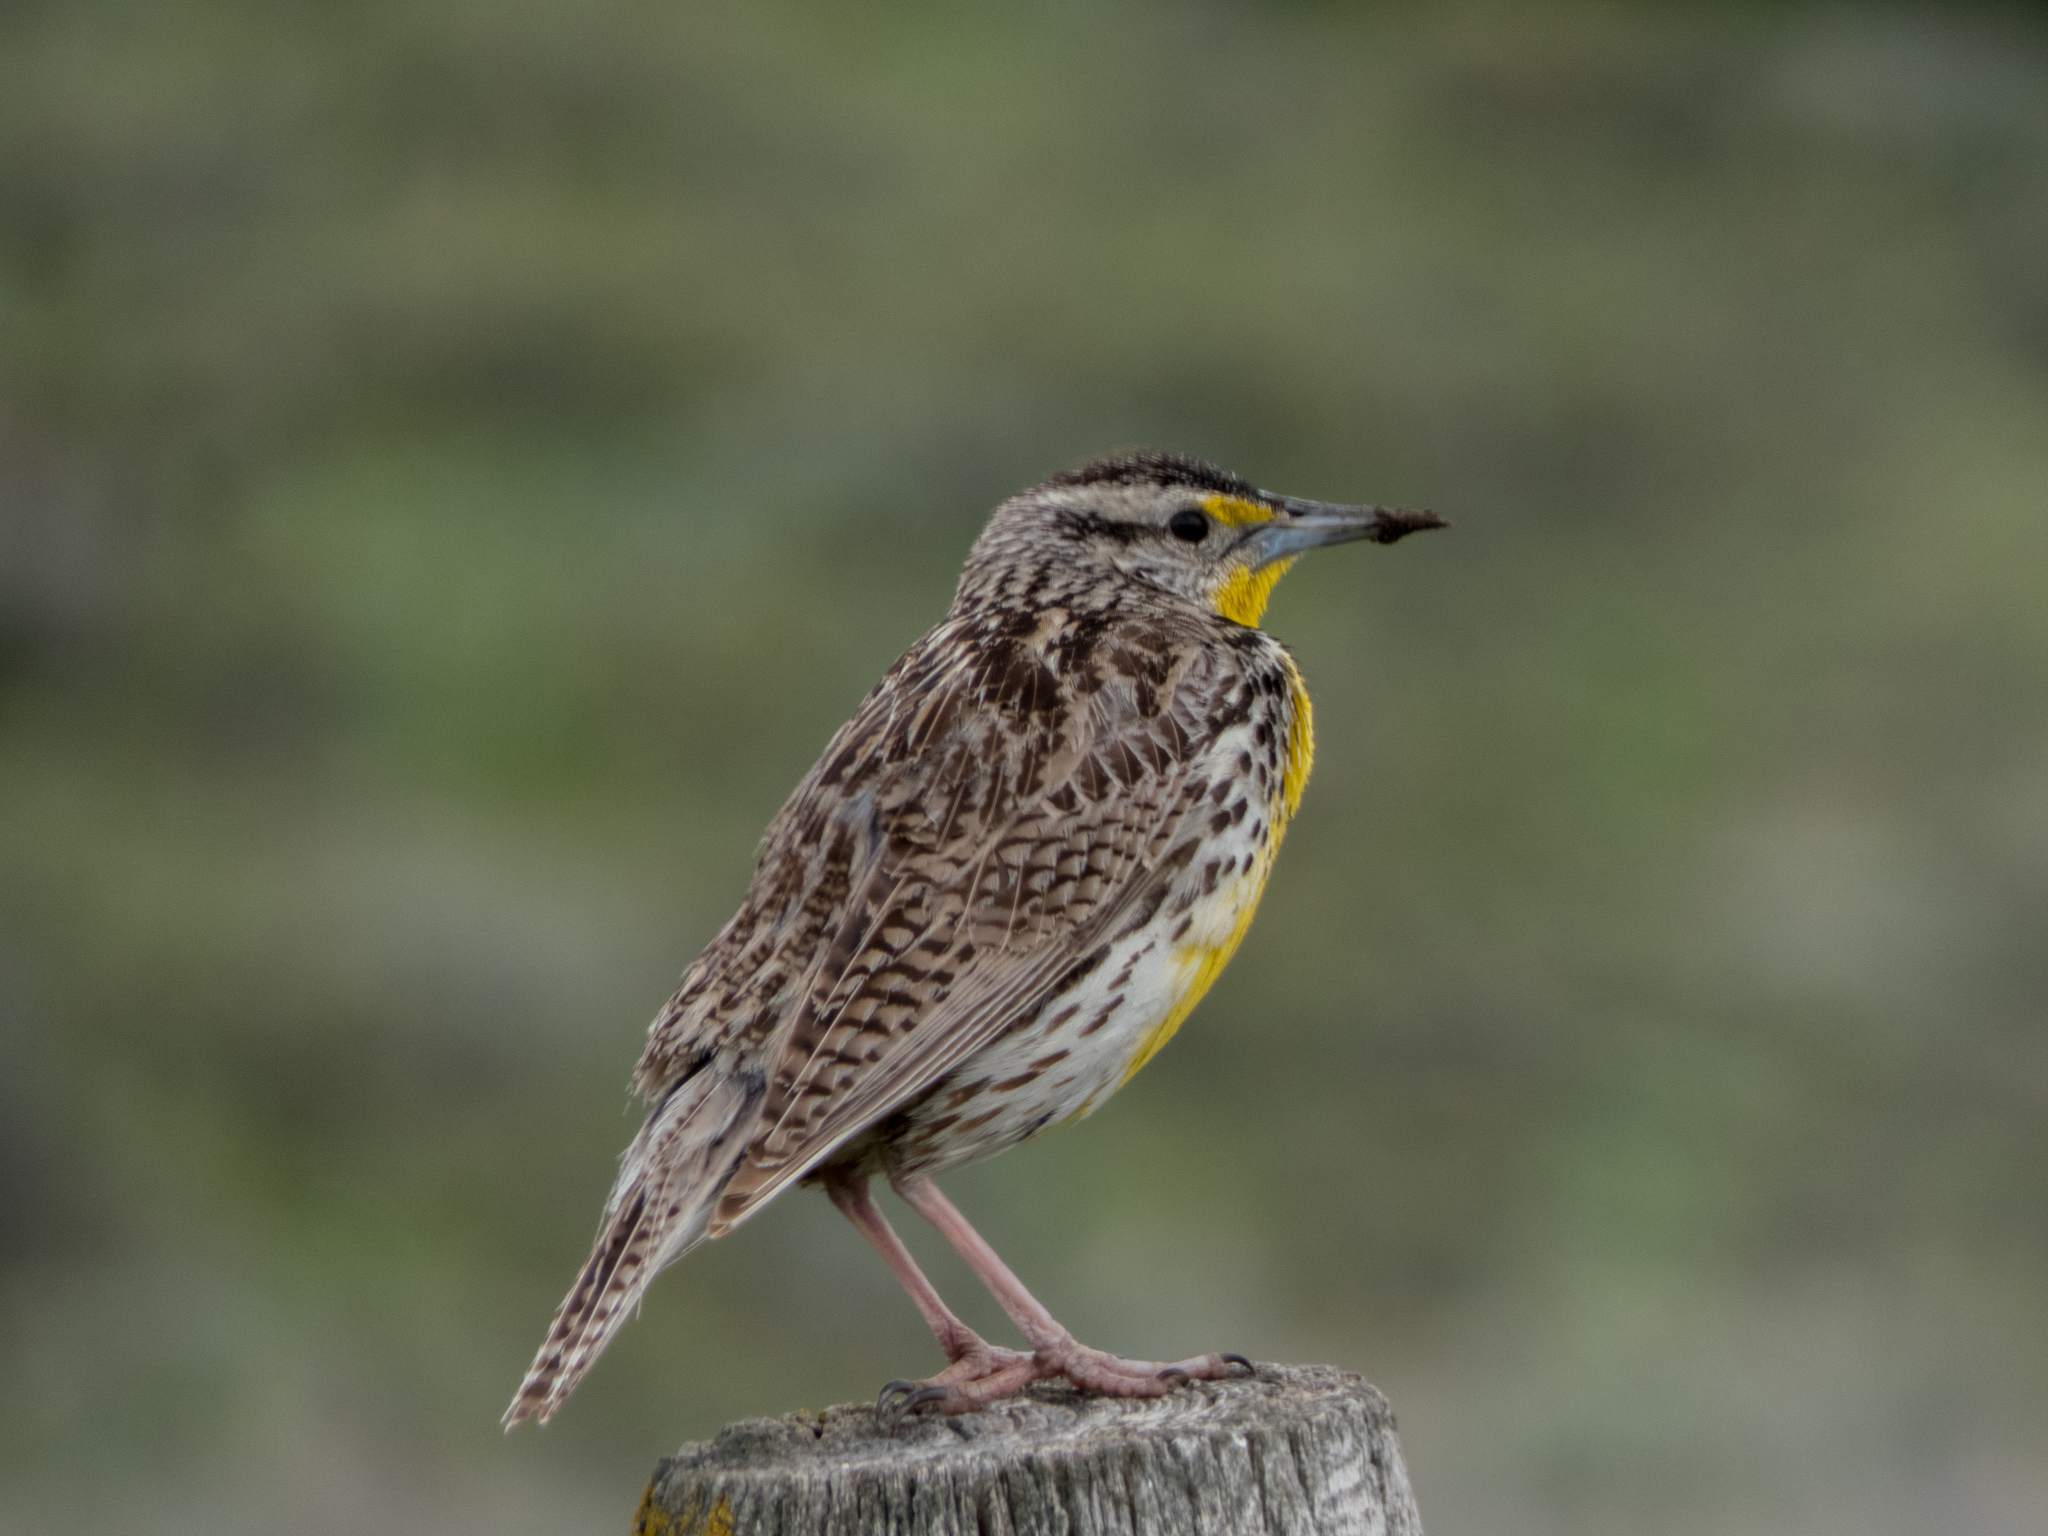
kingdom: Animalia
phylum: Chordata
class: Aves
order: Passeriformes
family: Icteridae
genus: Sturnella
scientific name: Sturnella neglecta
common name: Western meadowlark
